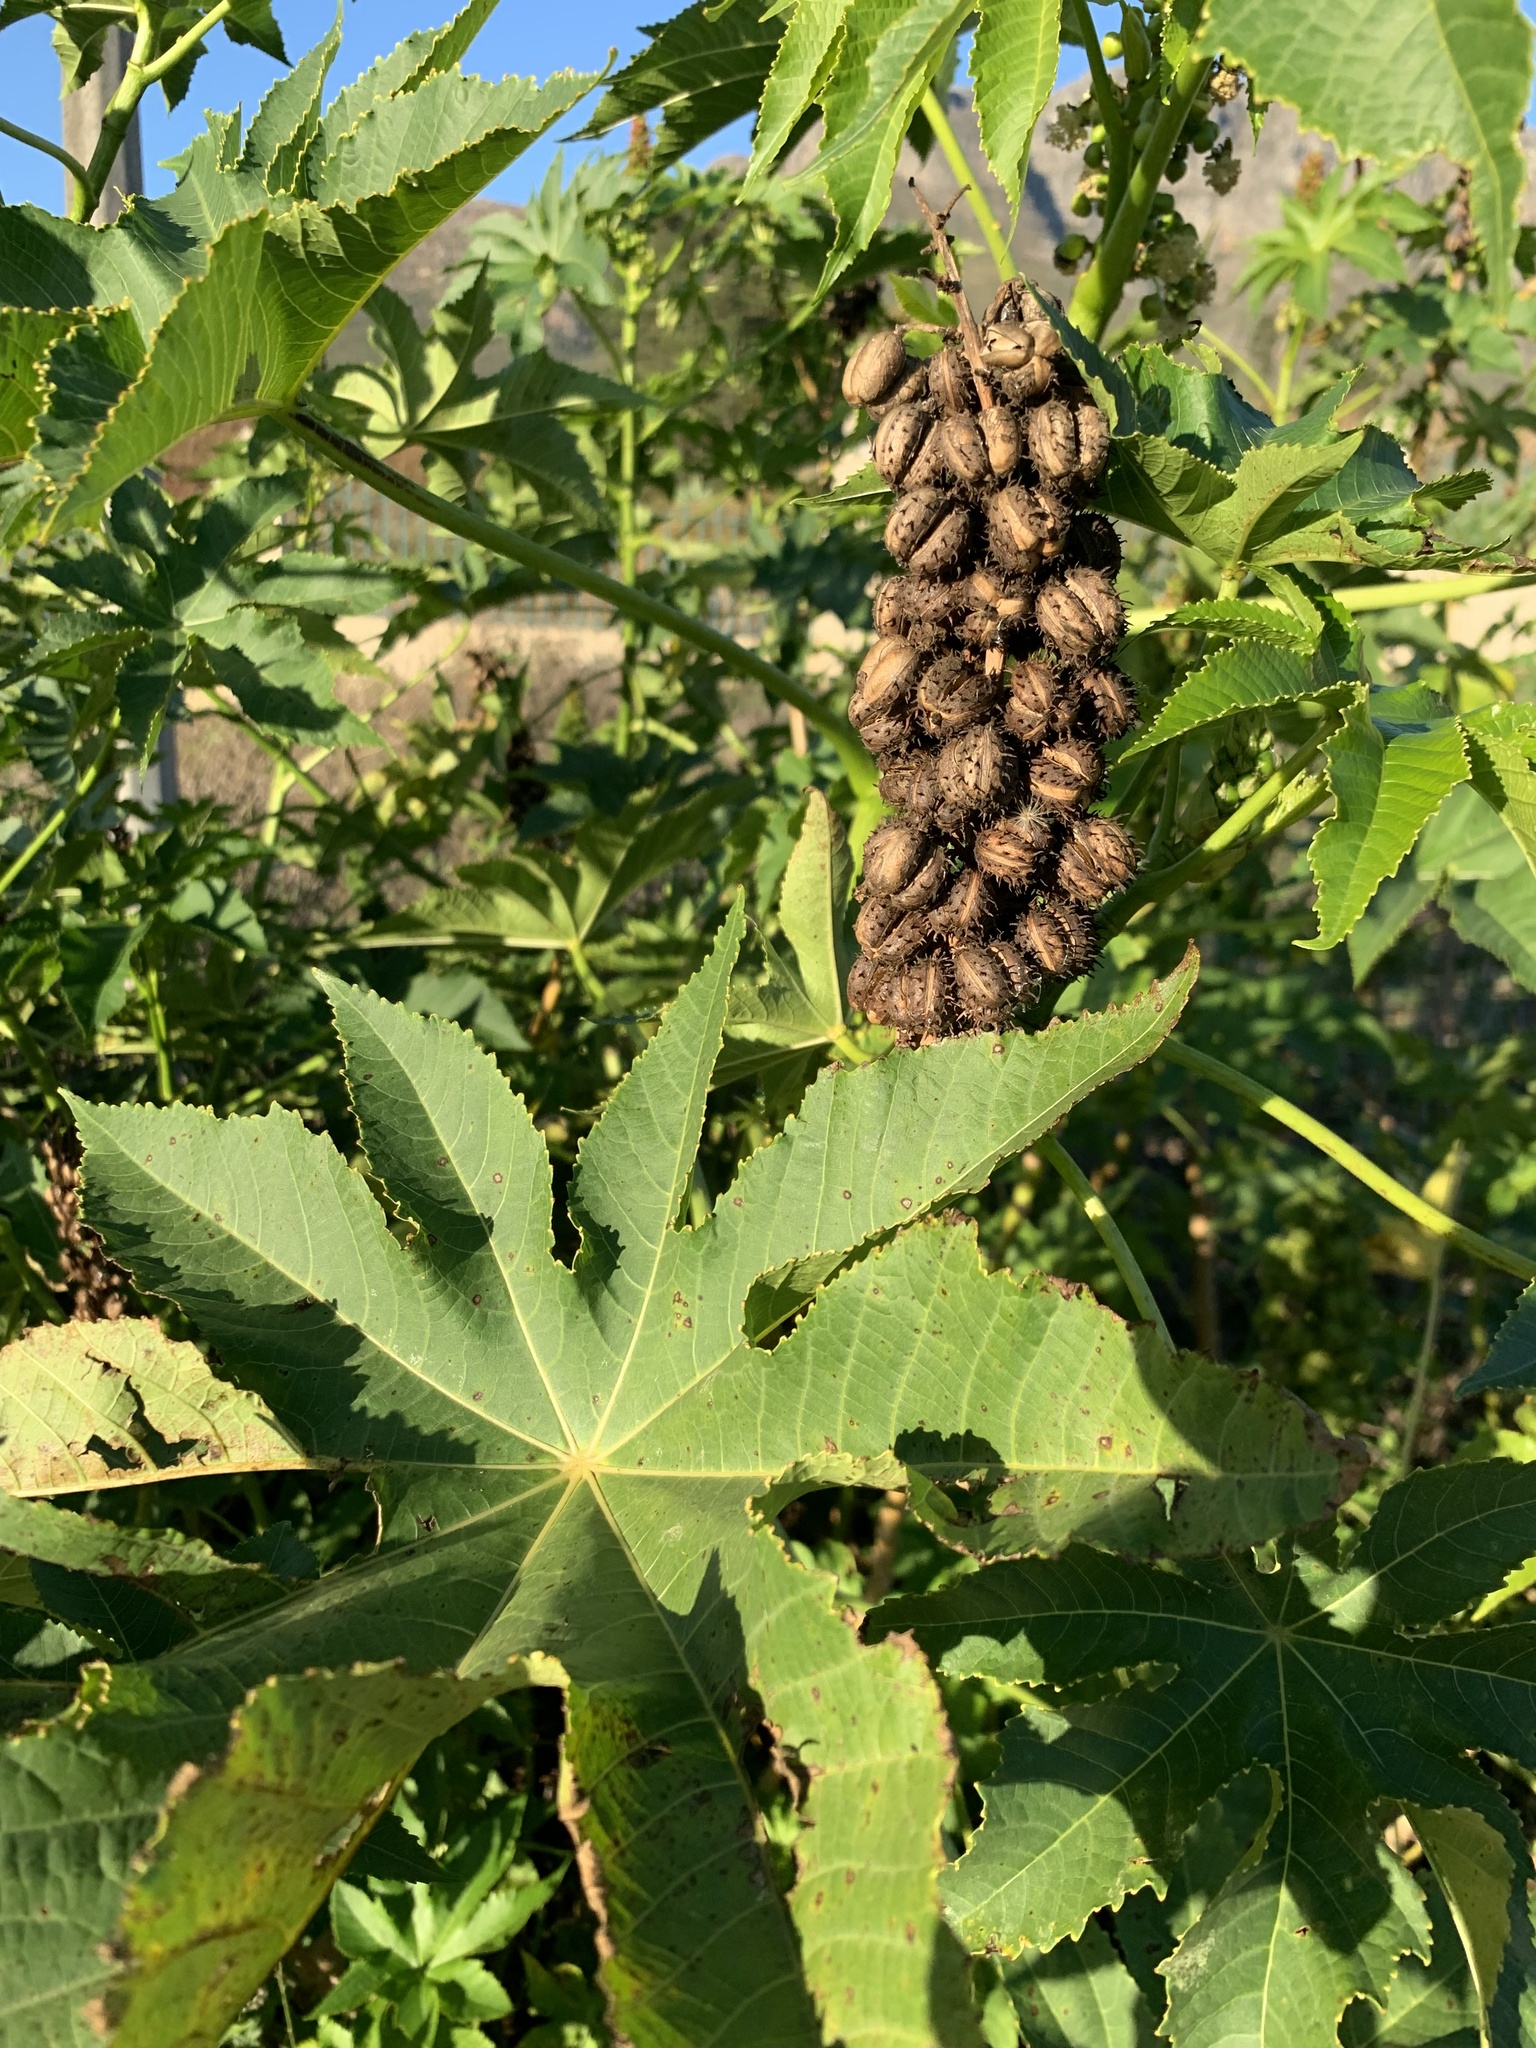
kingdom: Plantae
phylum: Tracheophyta
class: Magnoliopsida
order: Malpighiales
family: Euphorbiaceae
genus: Ricinus
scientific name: Ricinus communis
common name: Castor-oil-plant
